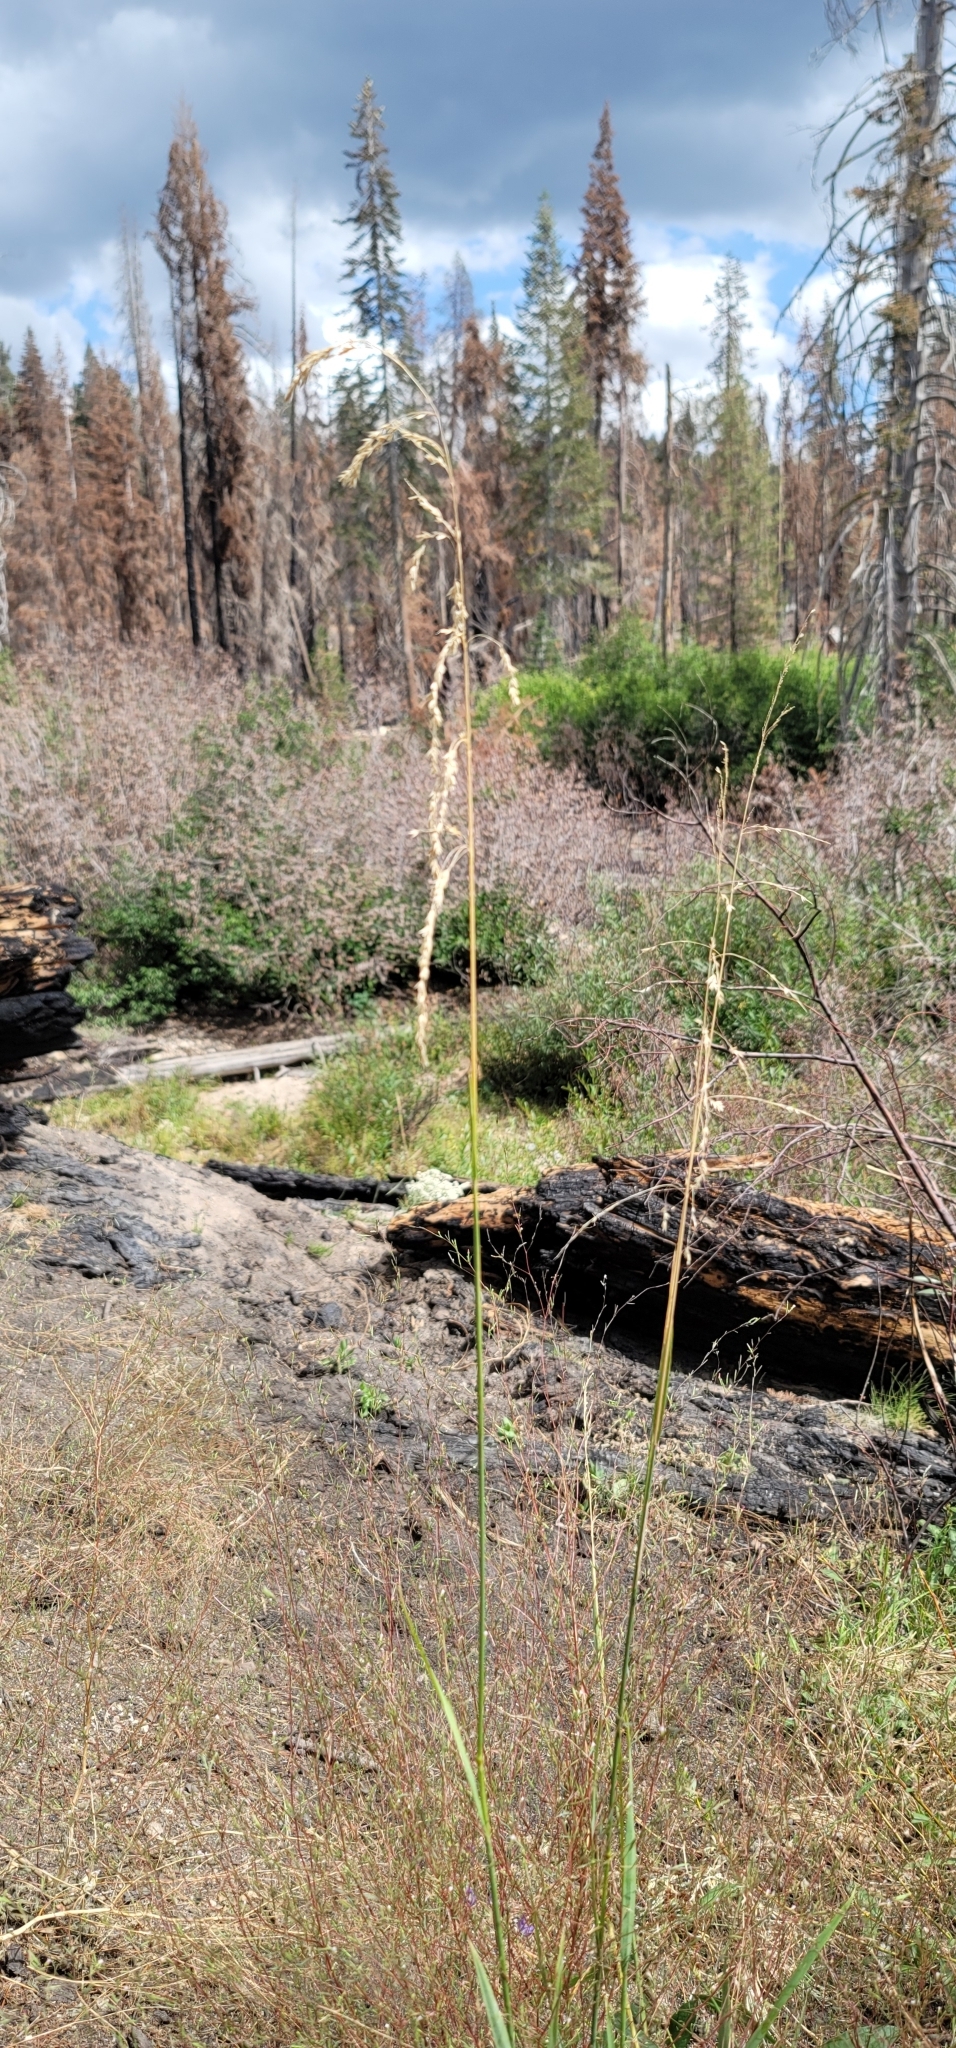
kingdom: Plantae
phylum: Tracheophyta
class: Liliopsida
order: Poales
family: Poaceae
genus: Cinna
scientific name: Cinna bolanderi
